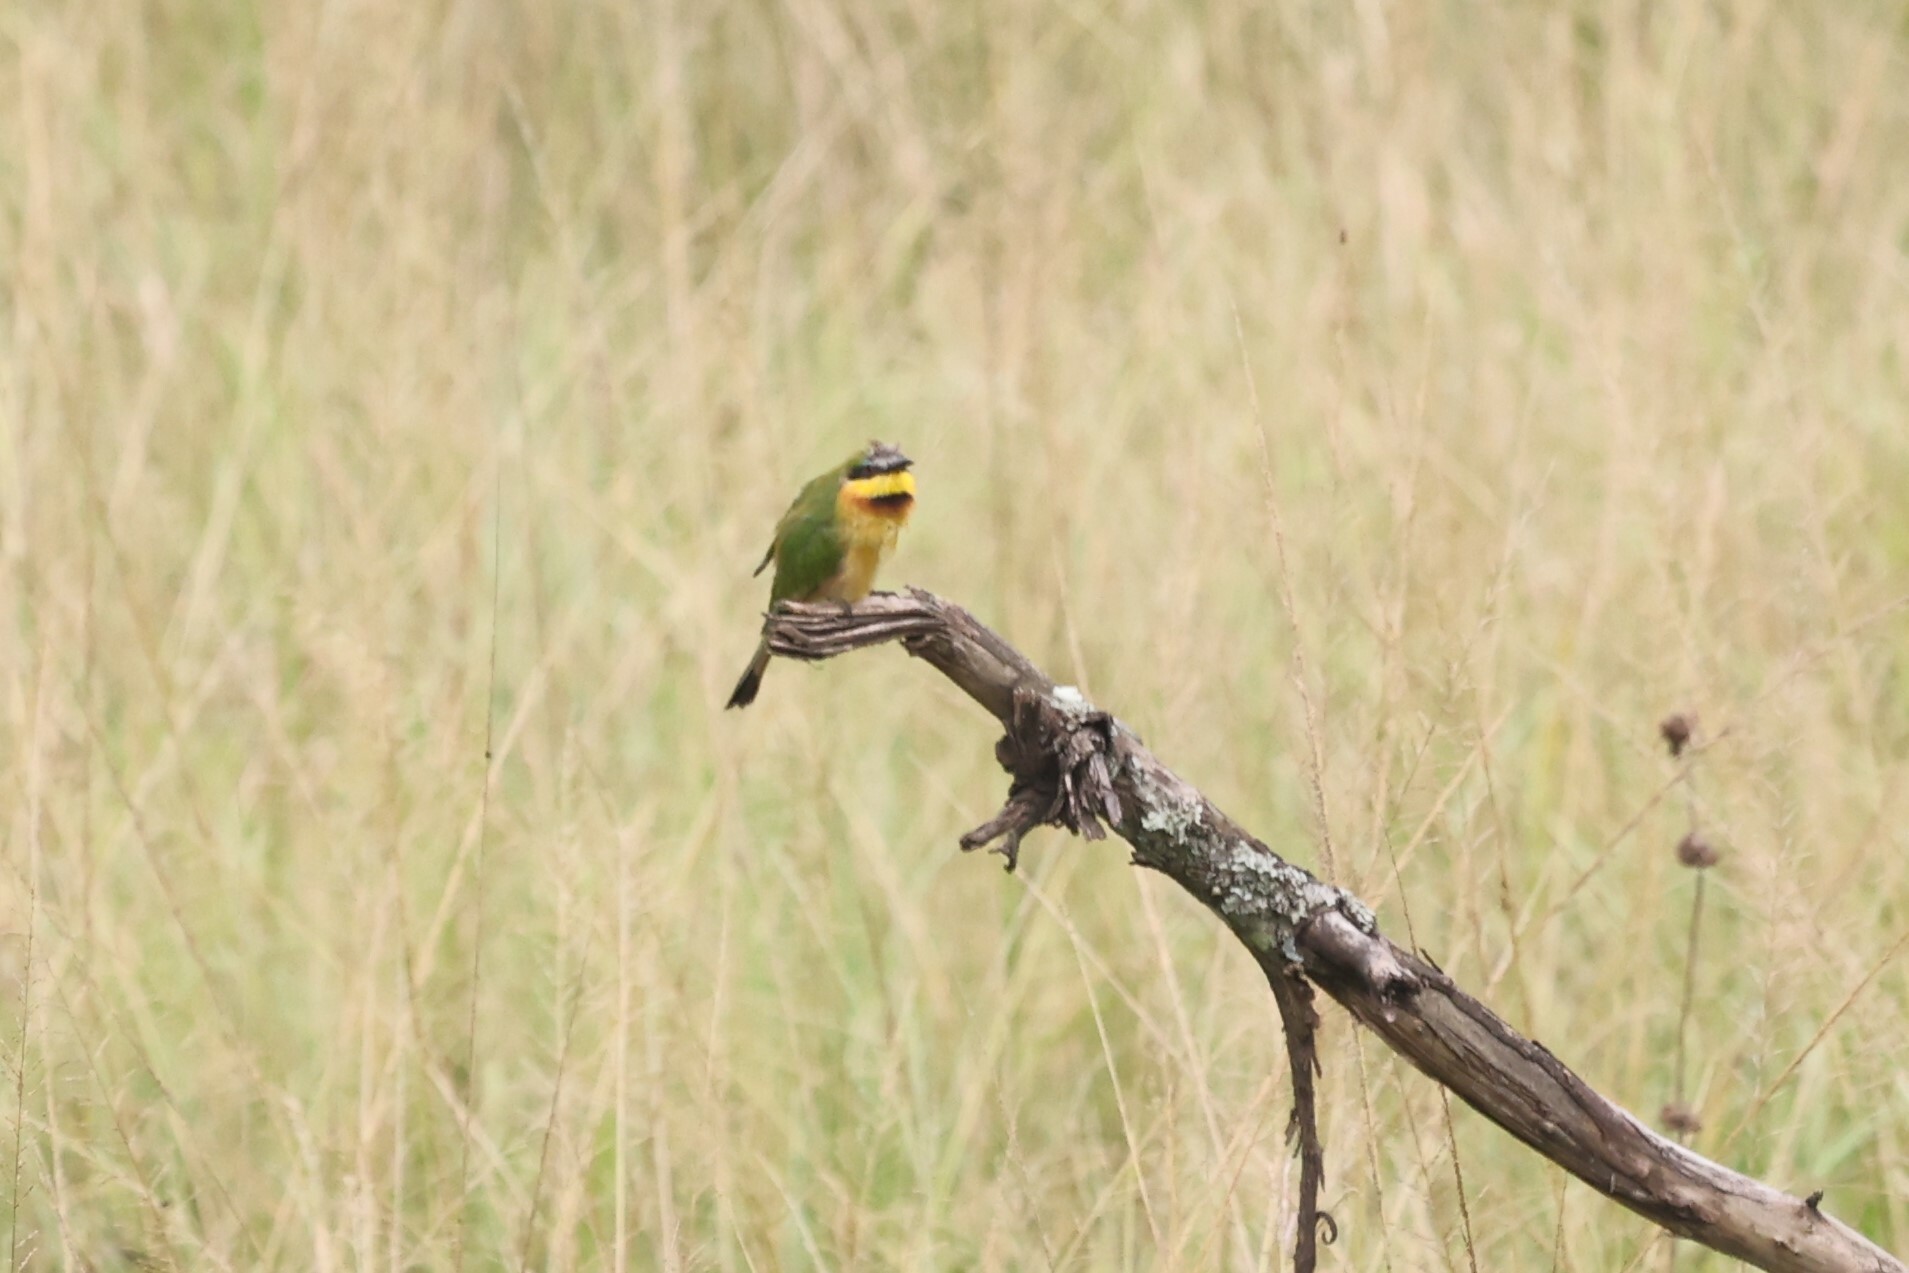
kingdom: Animalia
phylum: Chordata
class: Aves
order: Coraciiformes
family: Meropidae
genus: Merops
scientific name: Merops pusillus
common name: Little bee-eater
